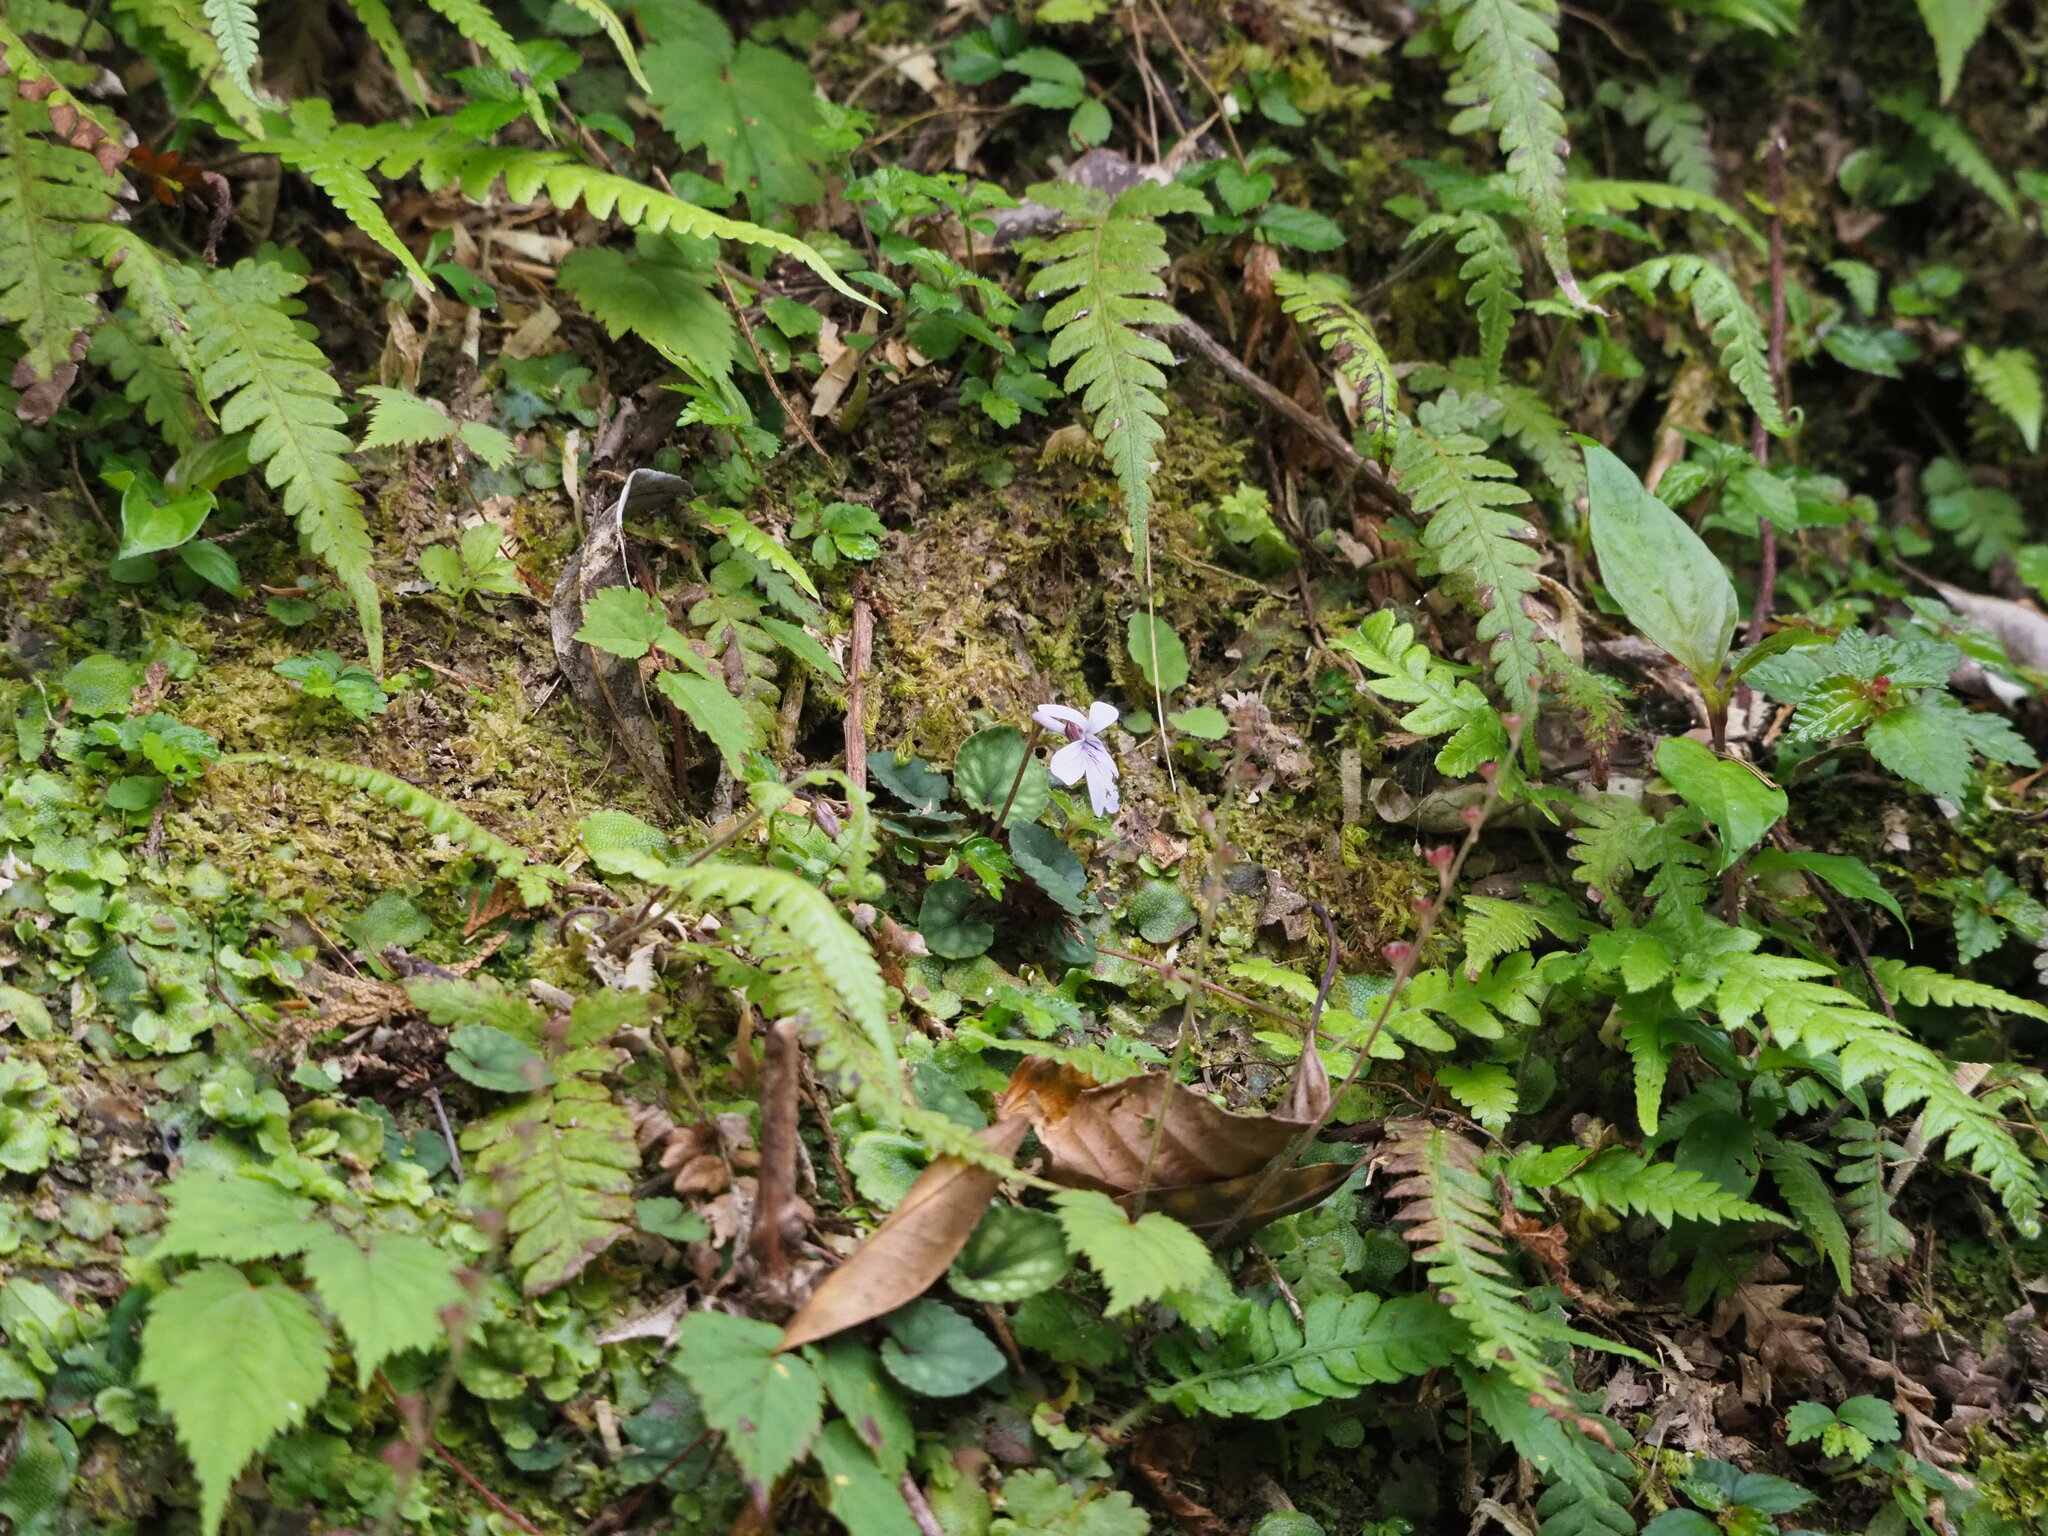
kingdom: Plantae
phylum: Tracheophyta
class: Magnoliopsida
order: Malpighiales
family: Violaceae
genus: Viola
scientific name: Viola formosana
